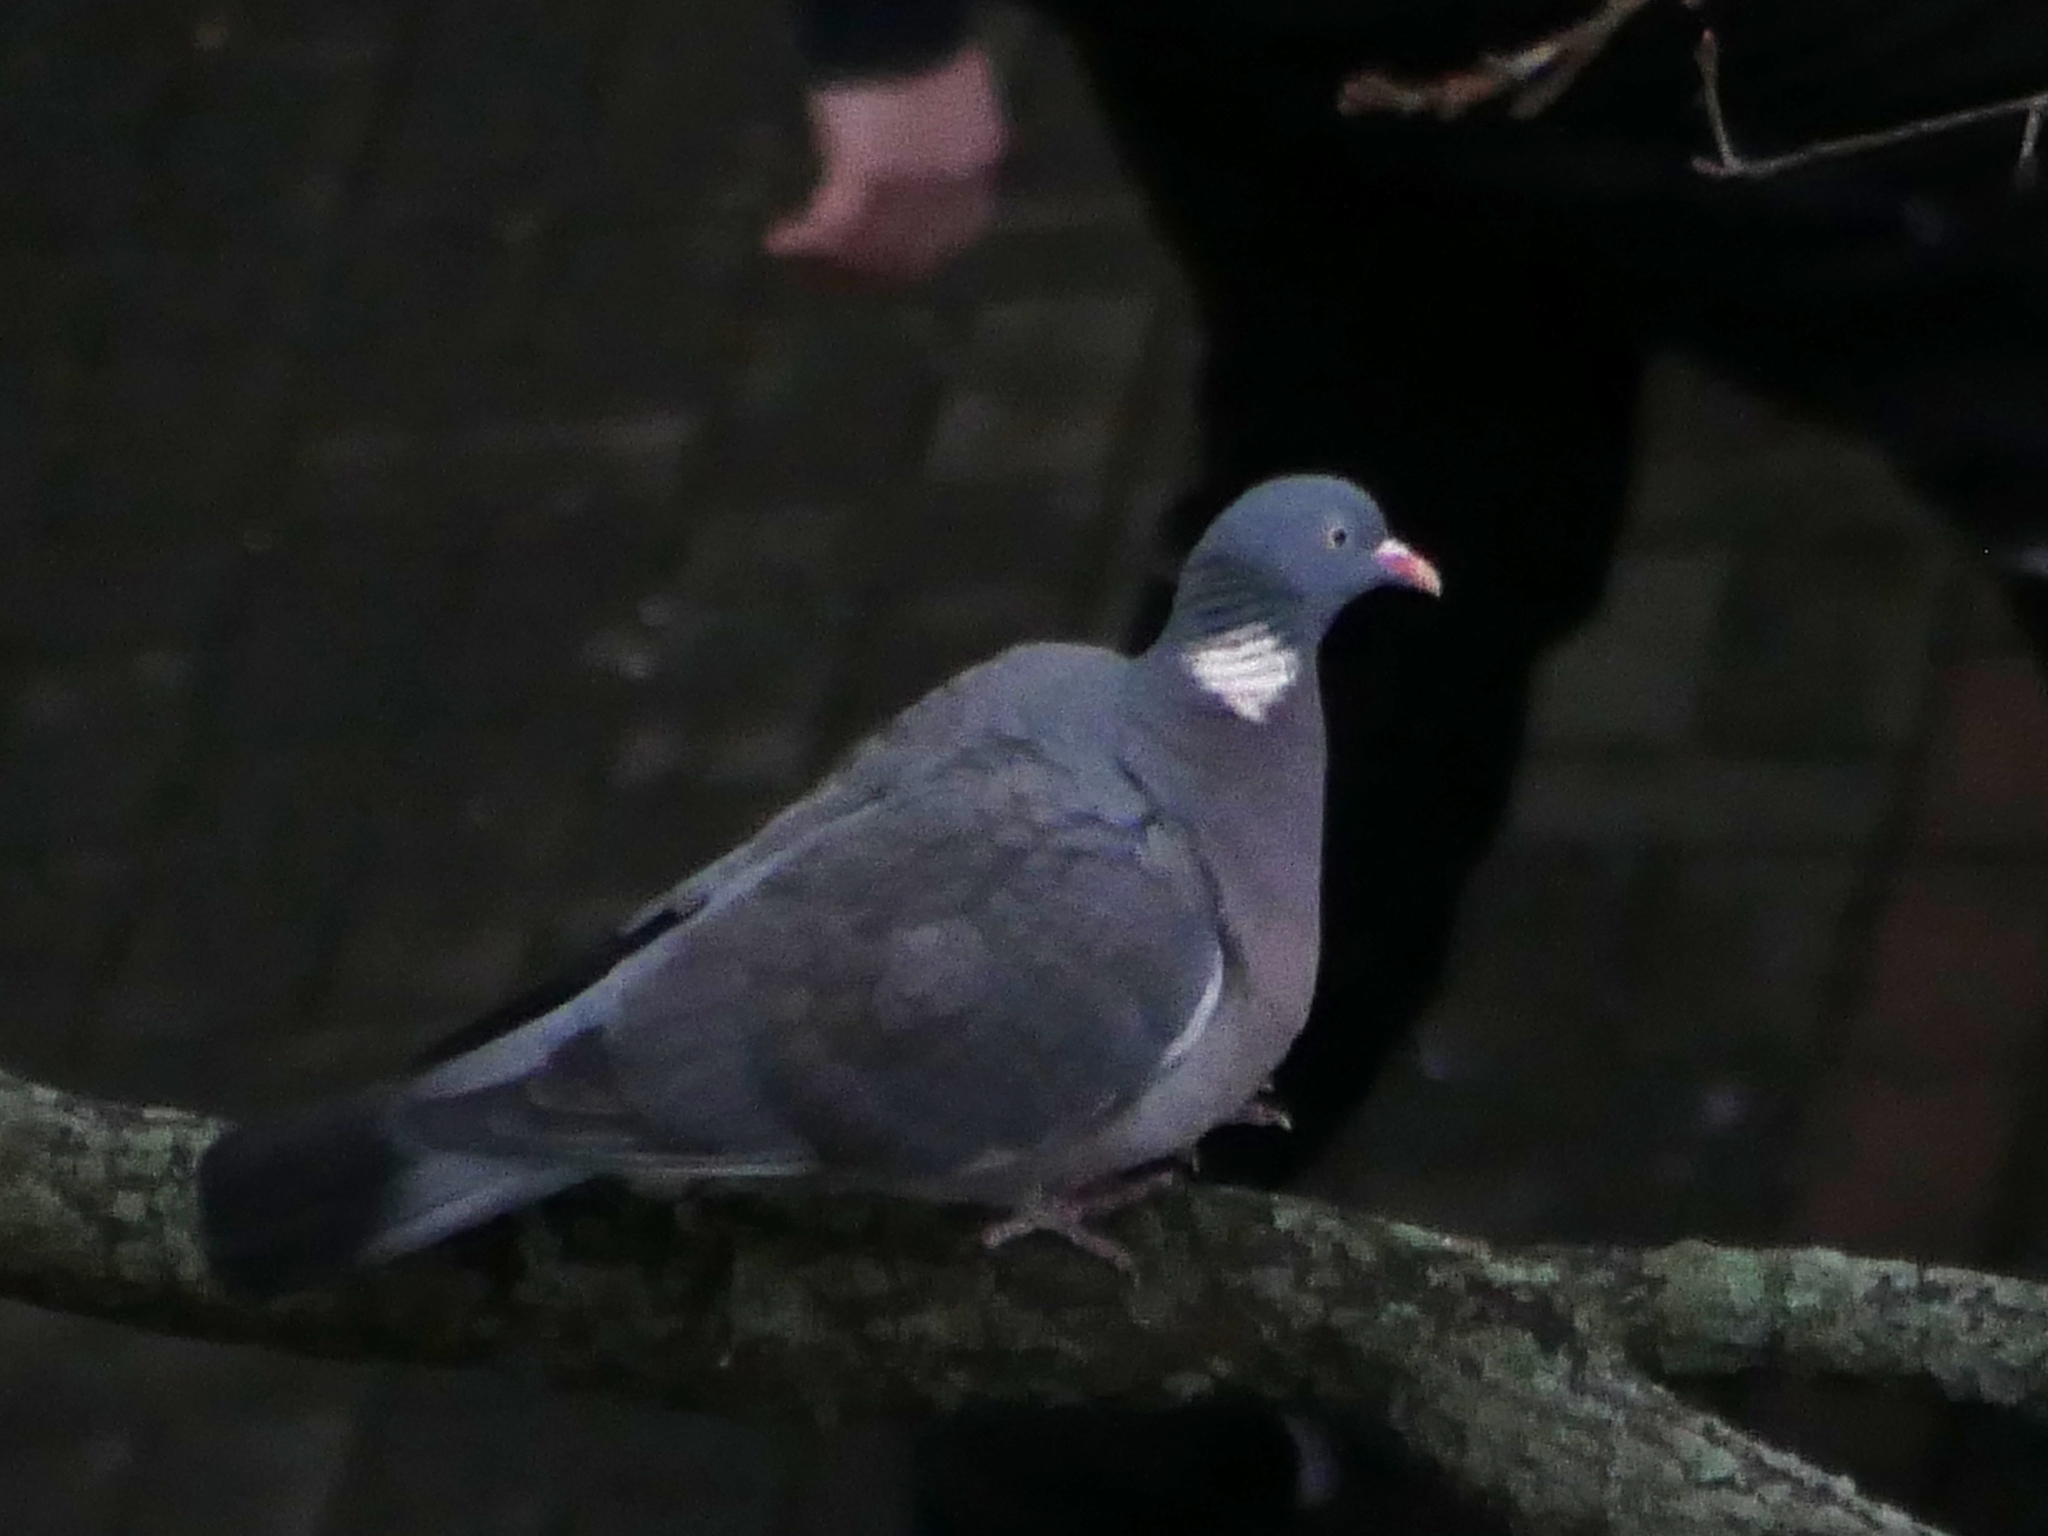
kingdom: Animalia
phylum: Chordata
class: Aves
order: Columbiformes
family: Columbidae
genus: Columba
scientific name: Columba palumbus
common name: Common wood pigeon
